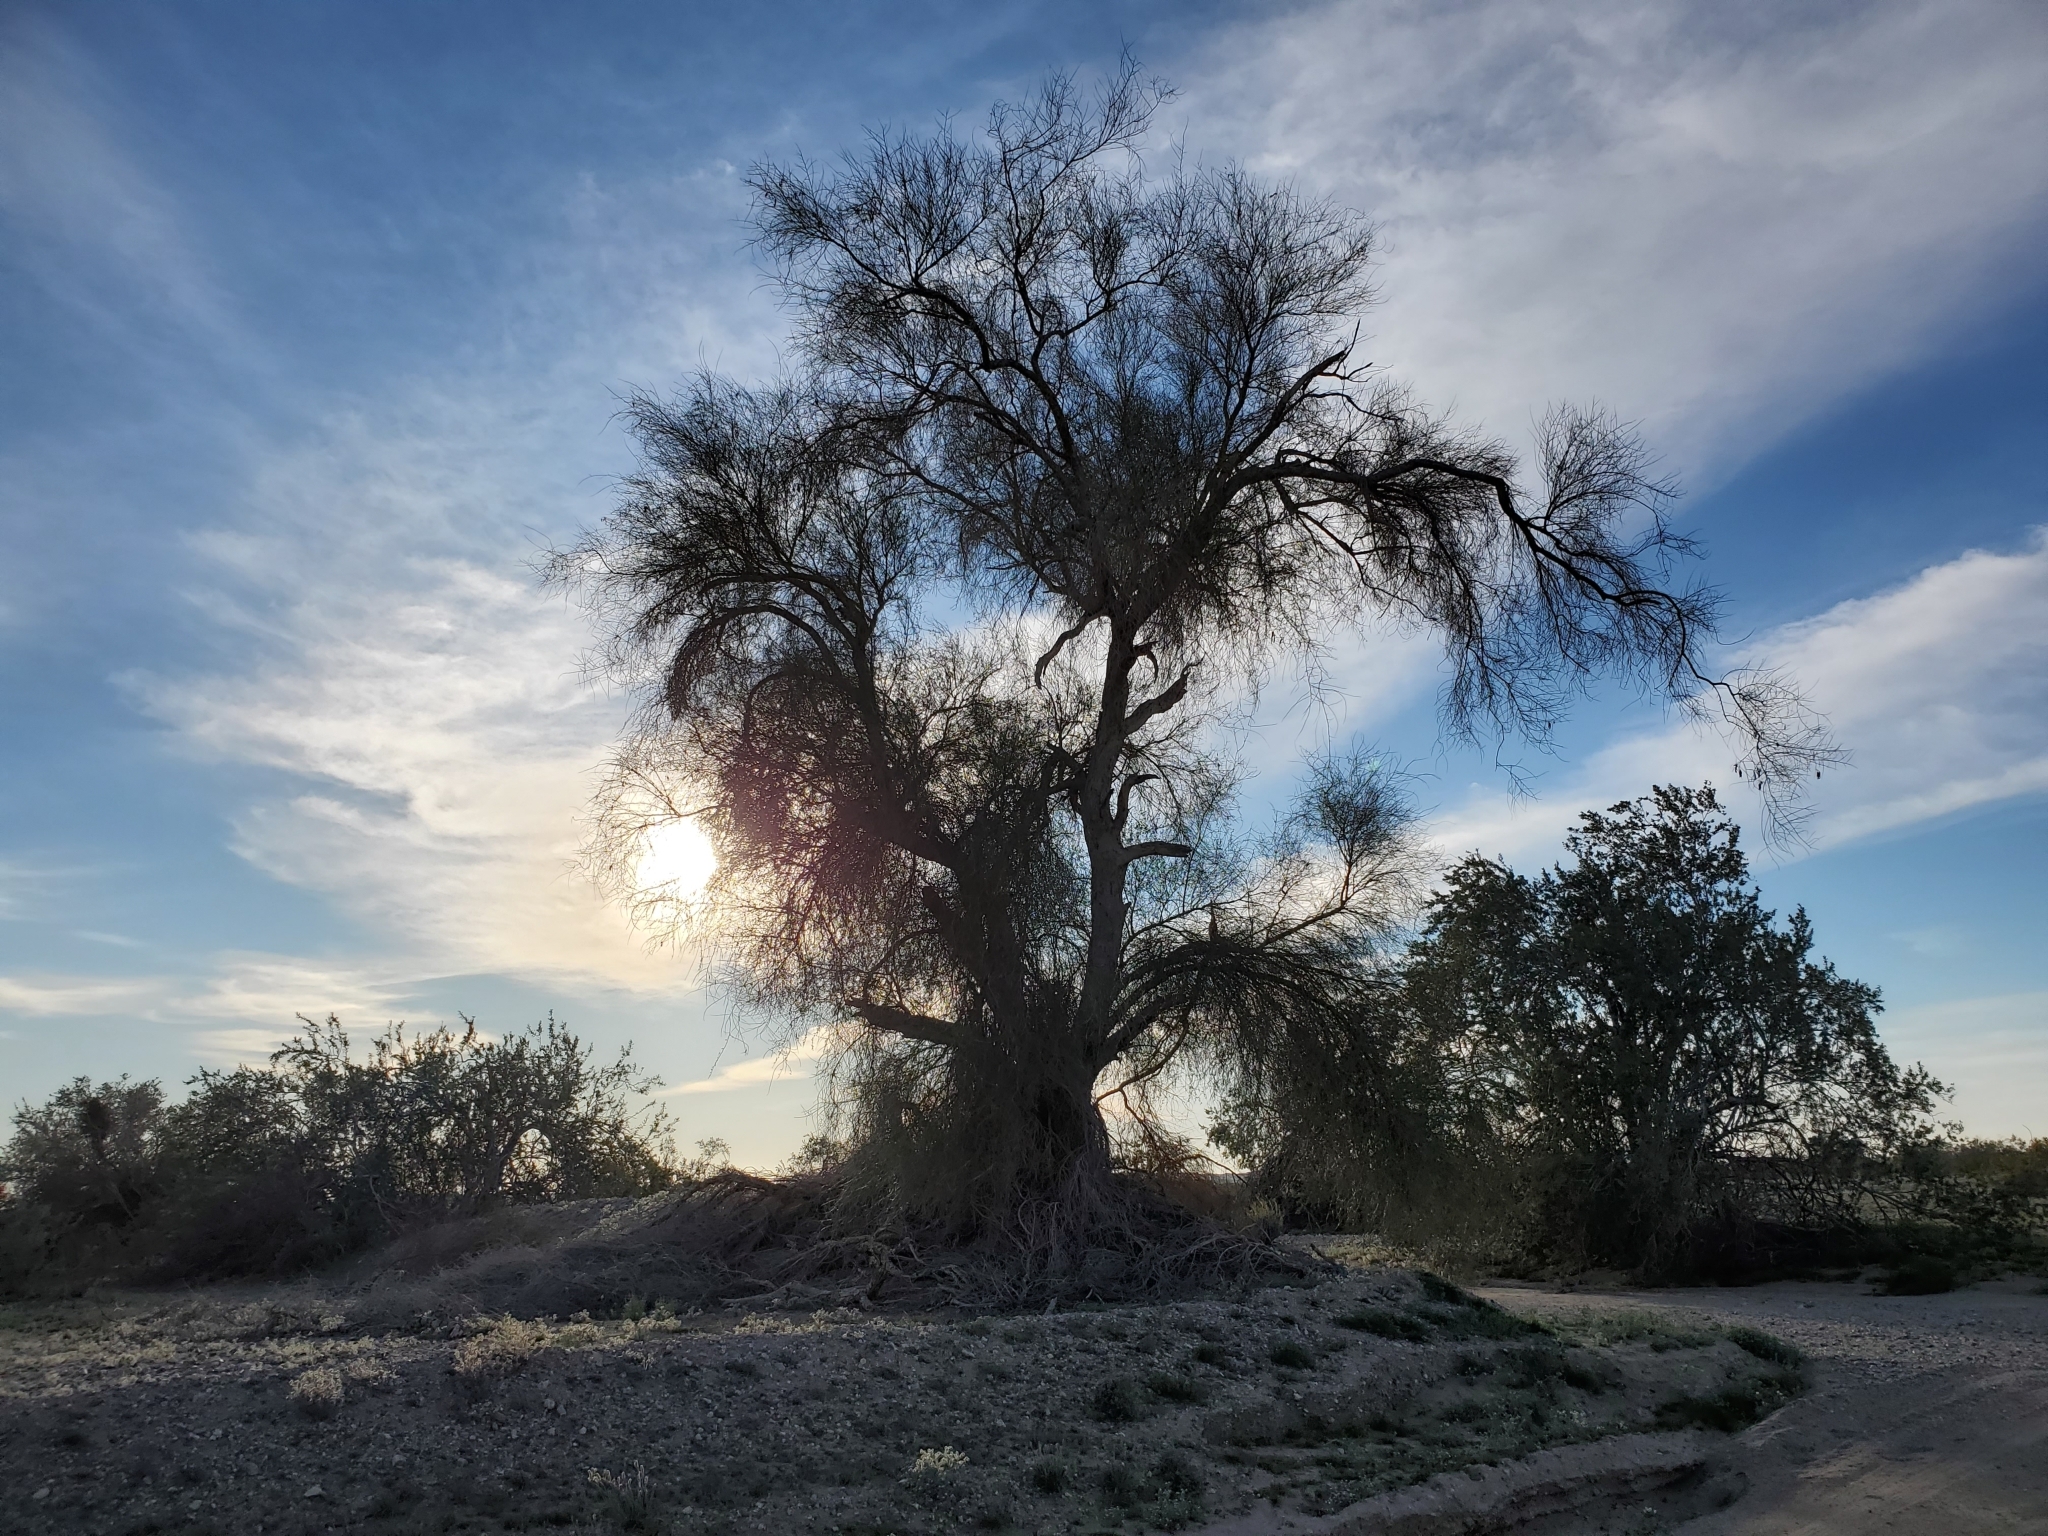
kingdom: Plantae
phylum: Tracheophyta
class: Magnoliopsida
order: Fabales
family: Fabaceae
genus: Parkinsonia
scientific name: Parkinsonia florida
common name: Blue paloverde
